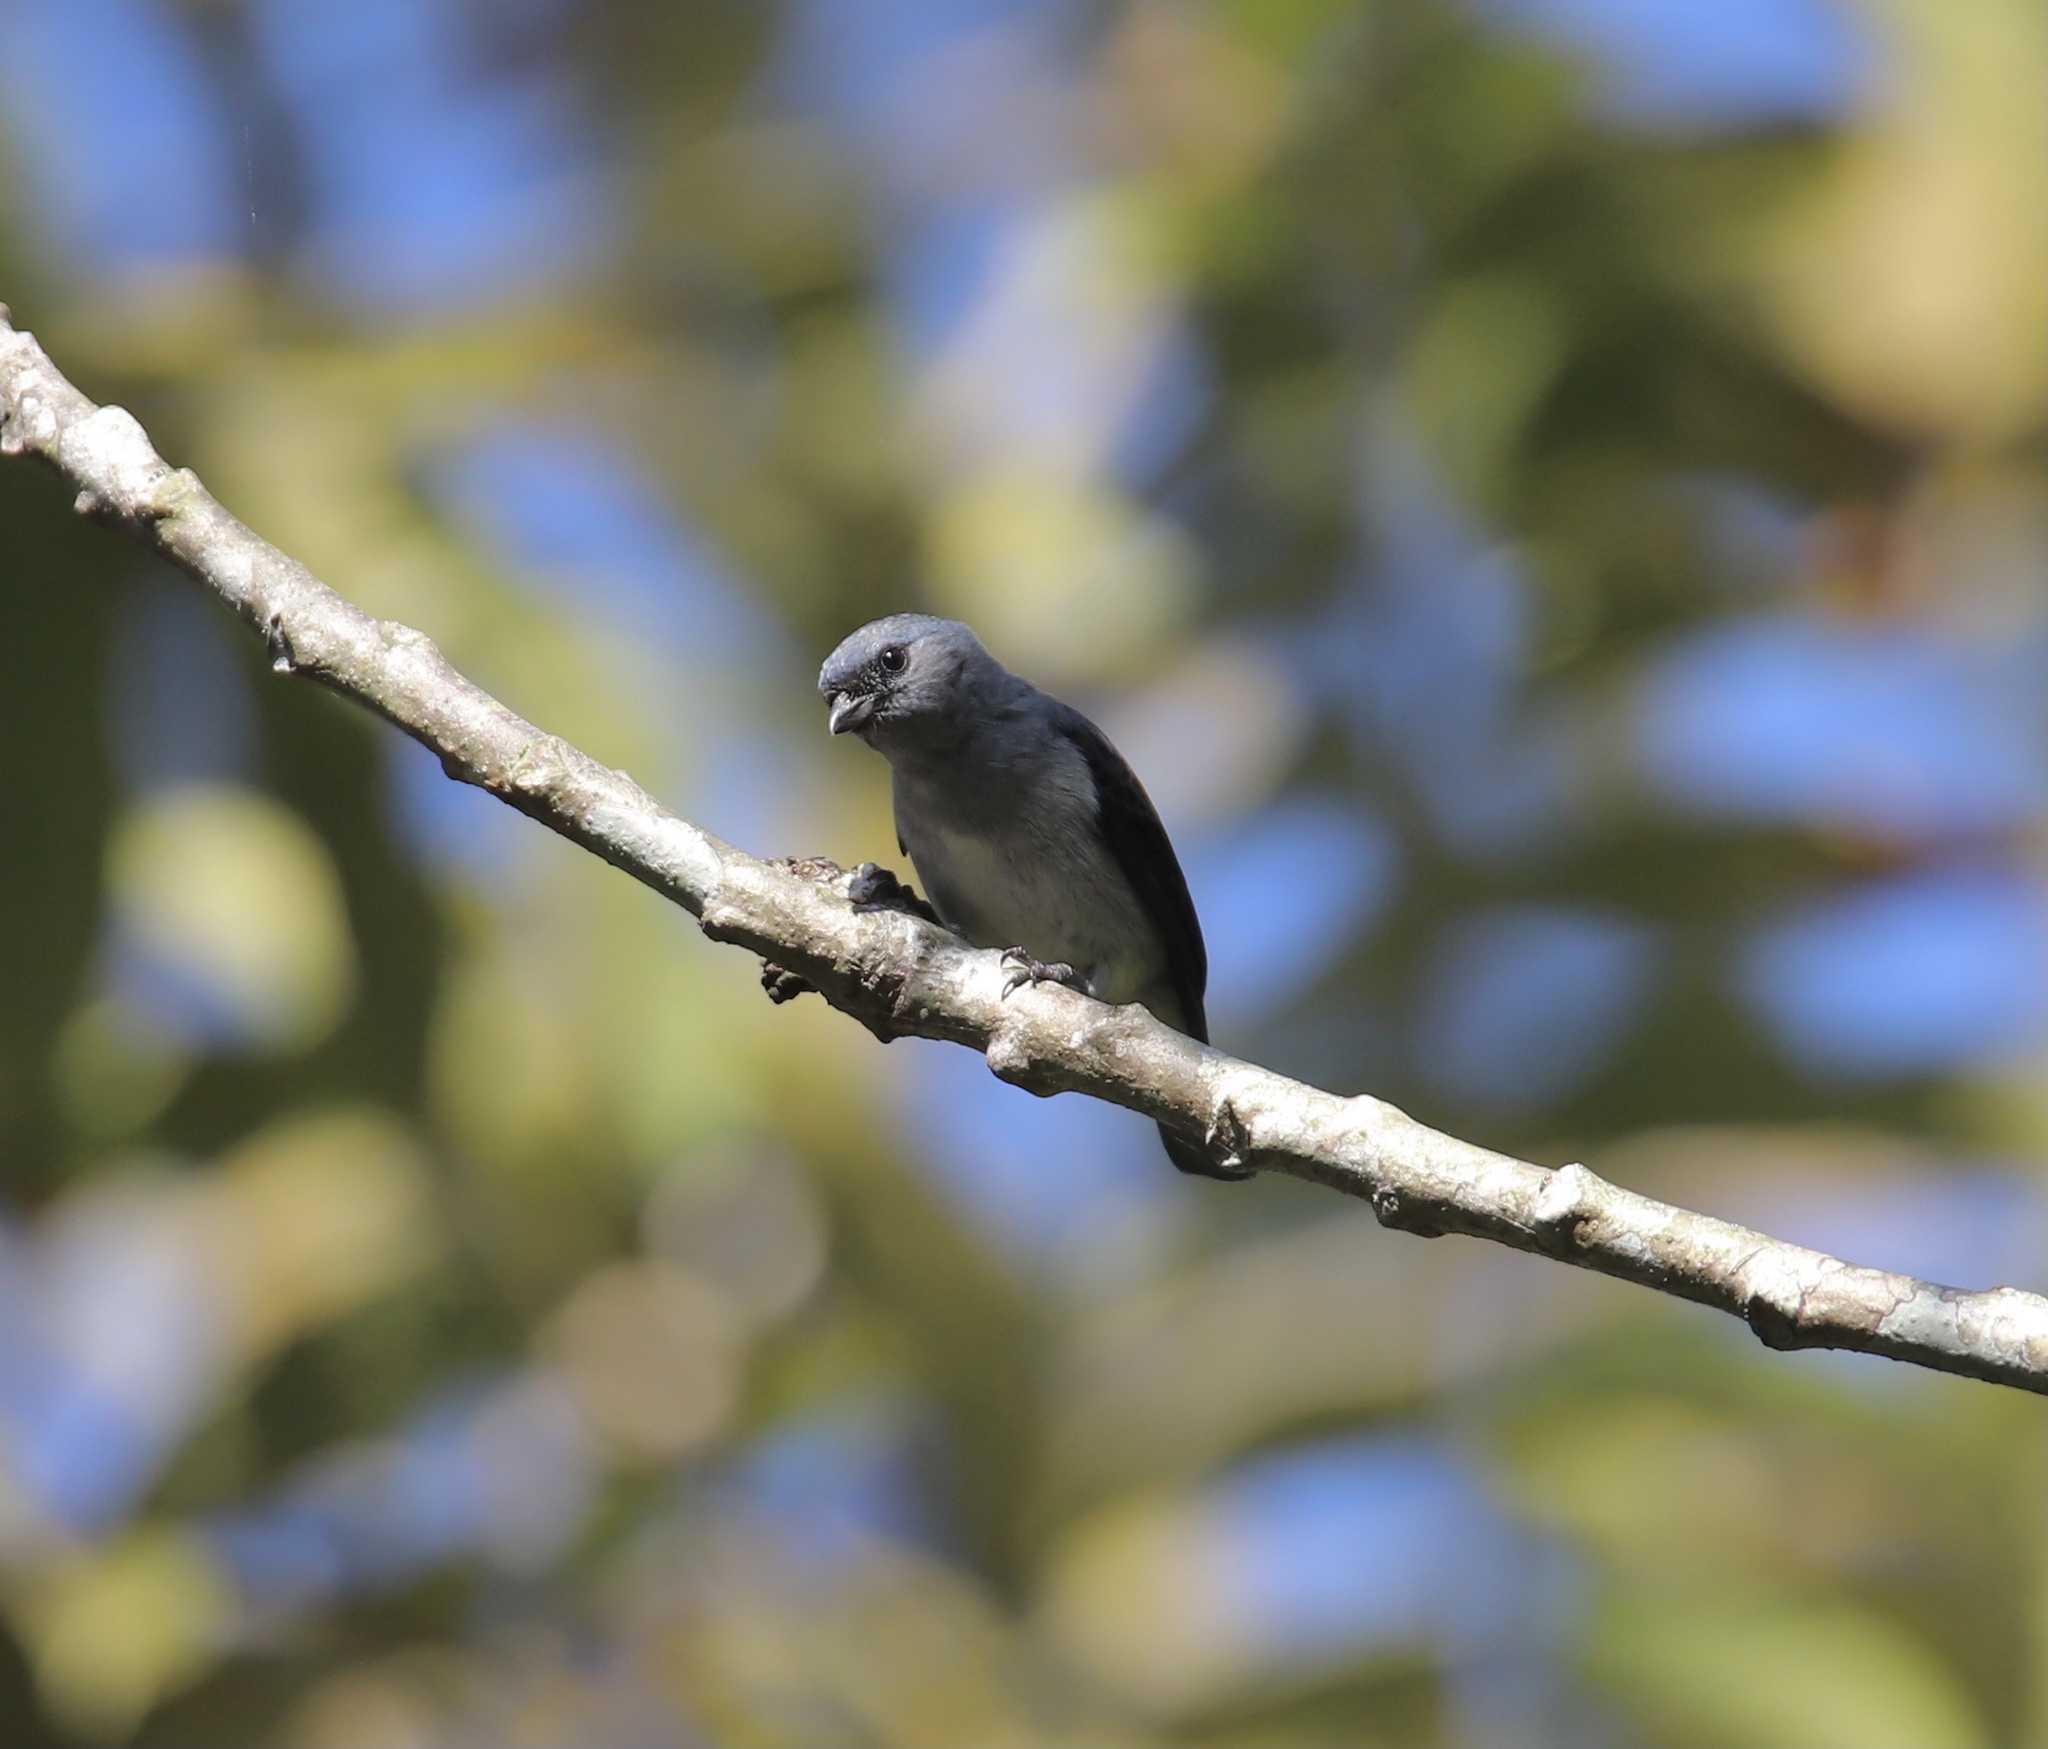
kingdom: Animalia
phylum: Chordata
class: Aves
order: Passeriformes
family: Thraupidae
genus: Tangara
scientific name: Tangara inornata
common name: Plain-colored tanager
